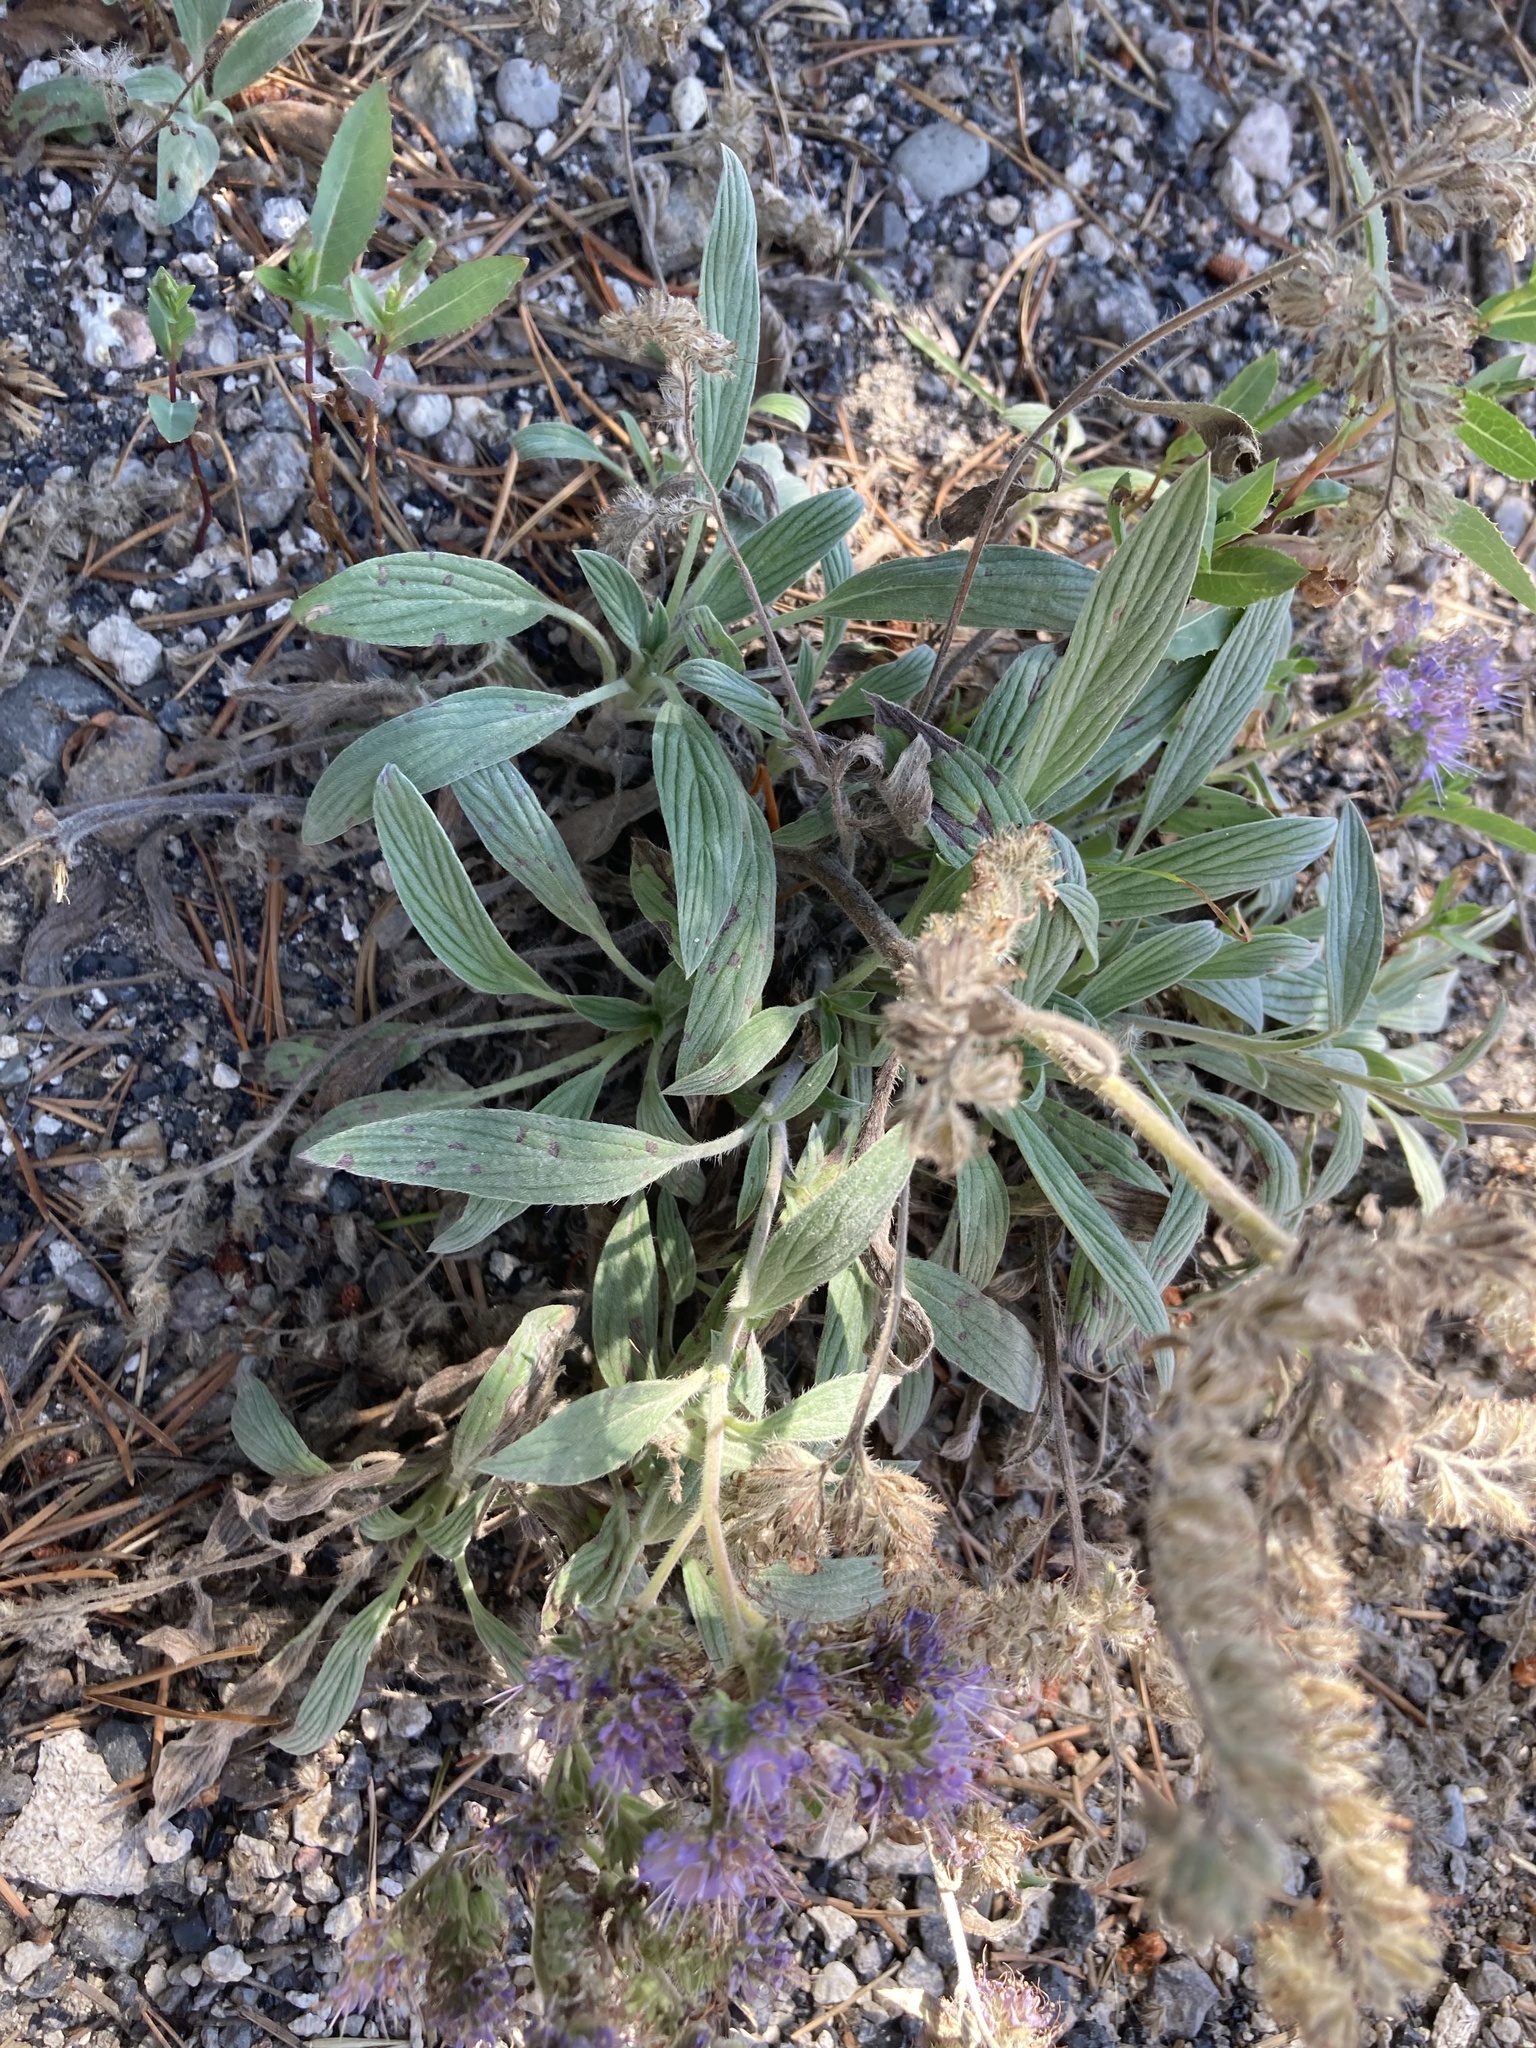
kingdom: Plantae
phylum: Tracheophyta
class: Magnoliopsida
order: Boraginales
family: Hydrophyllaceae
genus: Phacelia
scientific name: Phacelia hastata
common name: Silver-leaved phacelia
